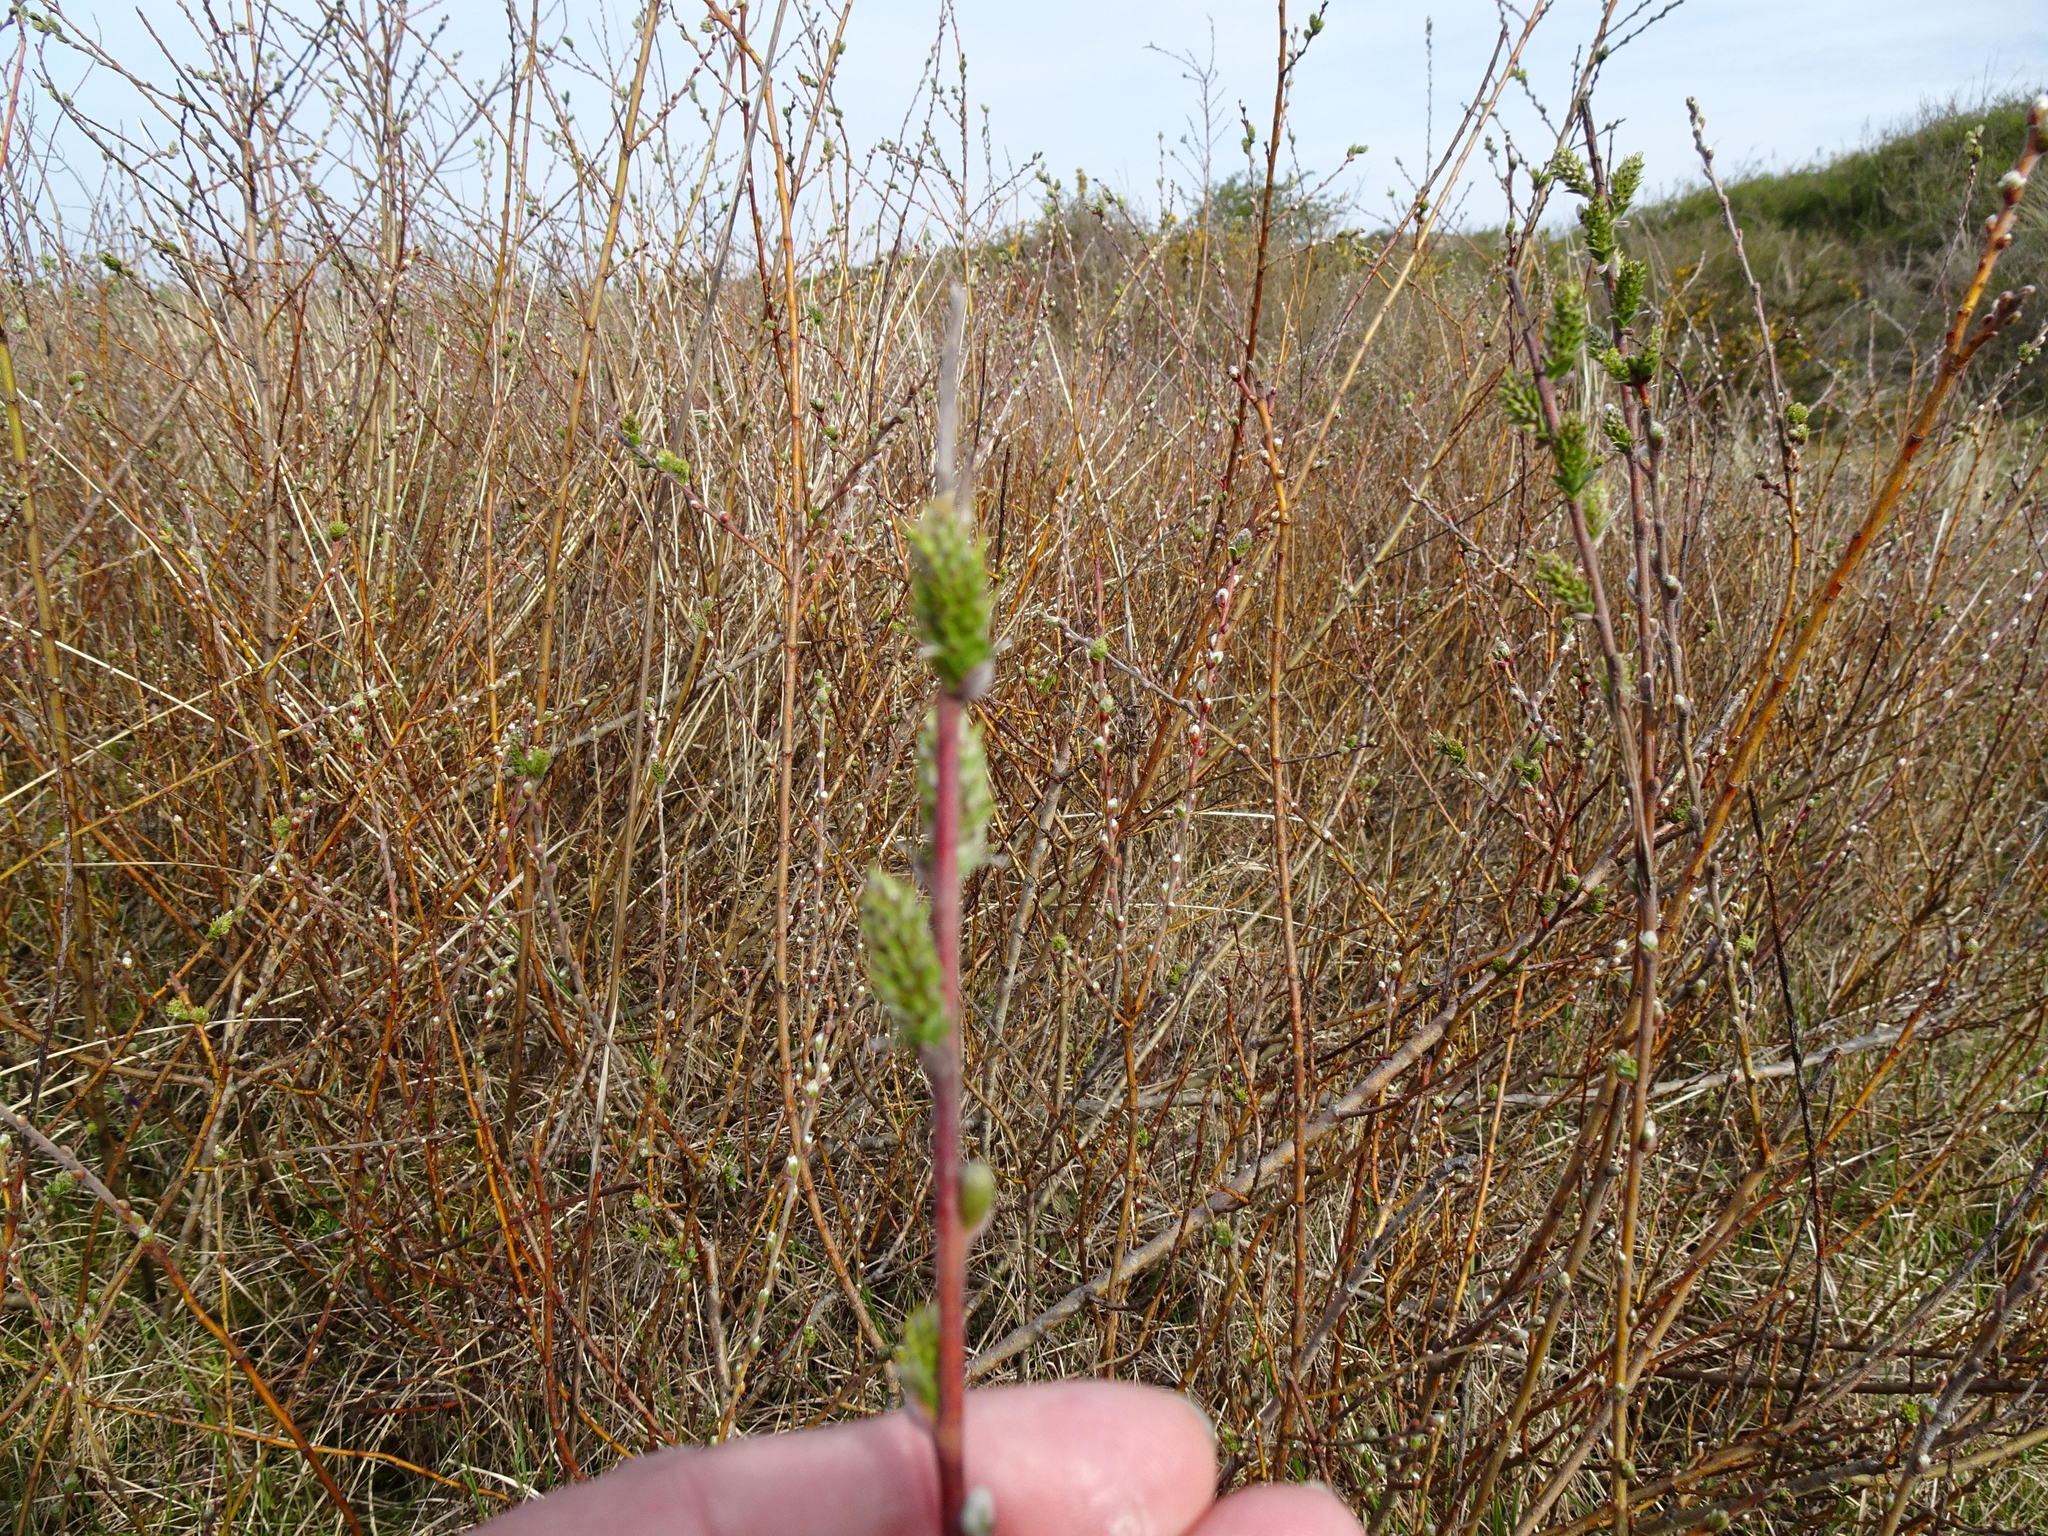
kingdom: Plantae
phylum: Tracheophyta
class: Magnoliopsida
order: Malpighiales
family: Salicaceae
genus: Salix
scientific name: Salix repens
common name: Creeping willow
